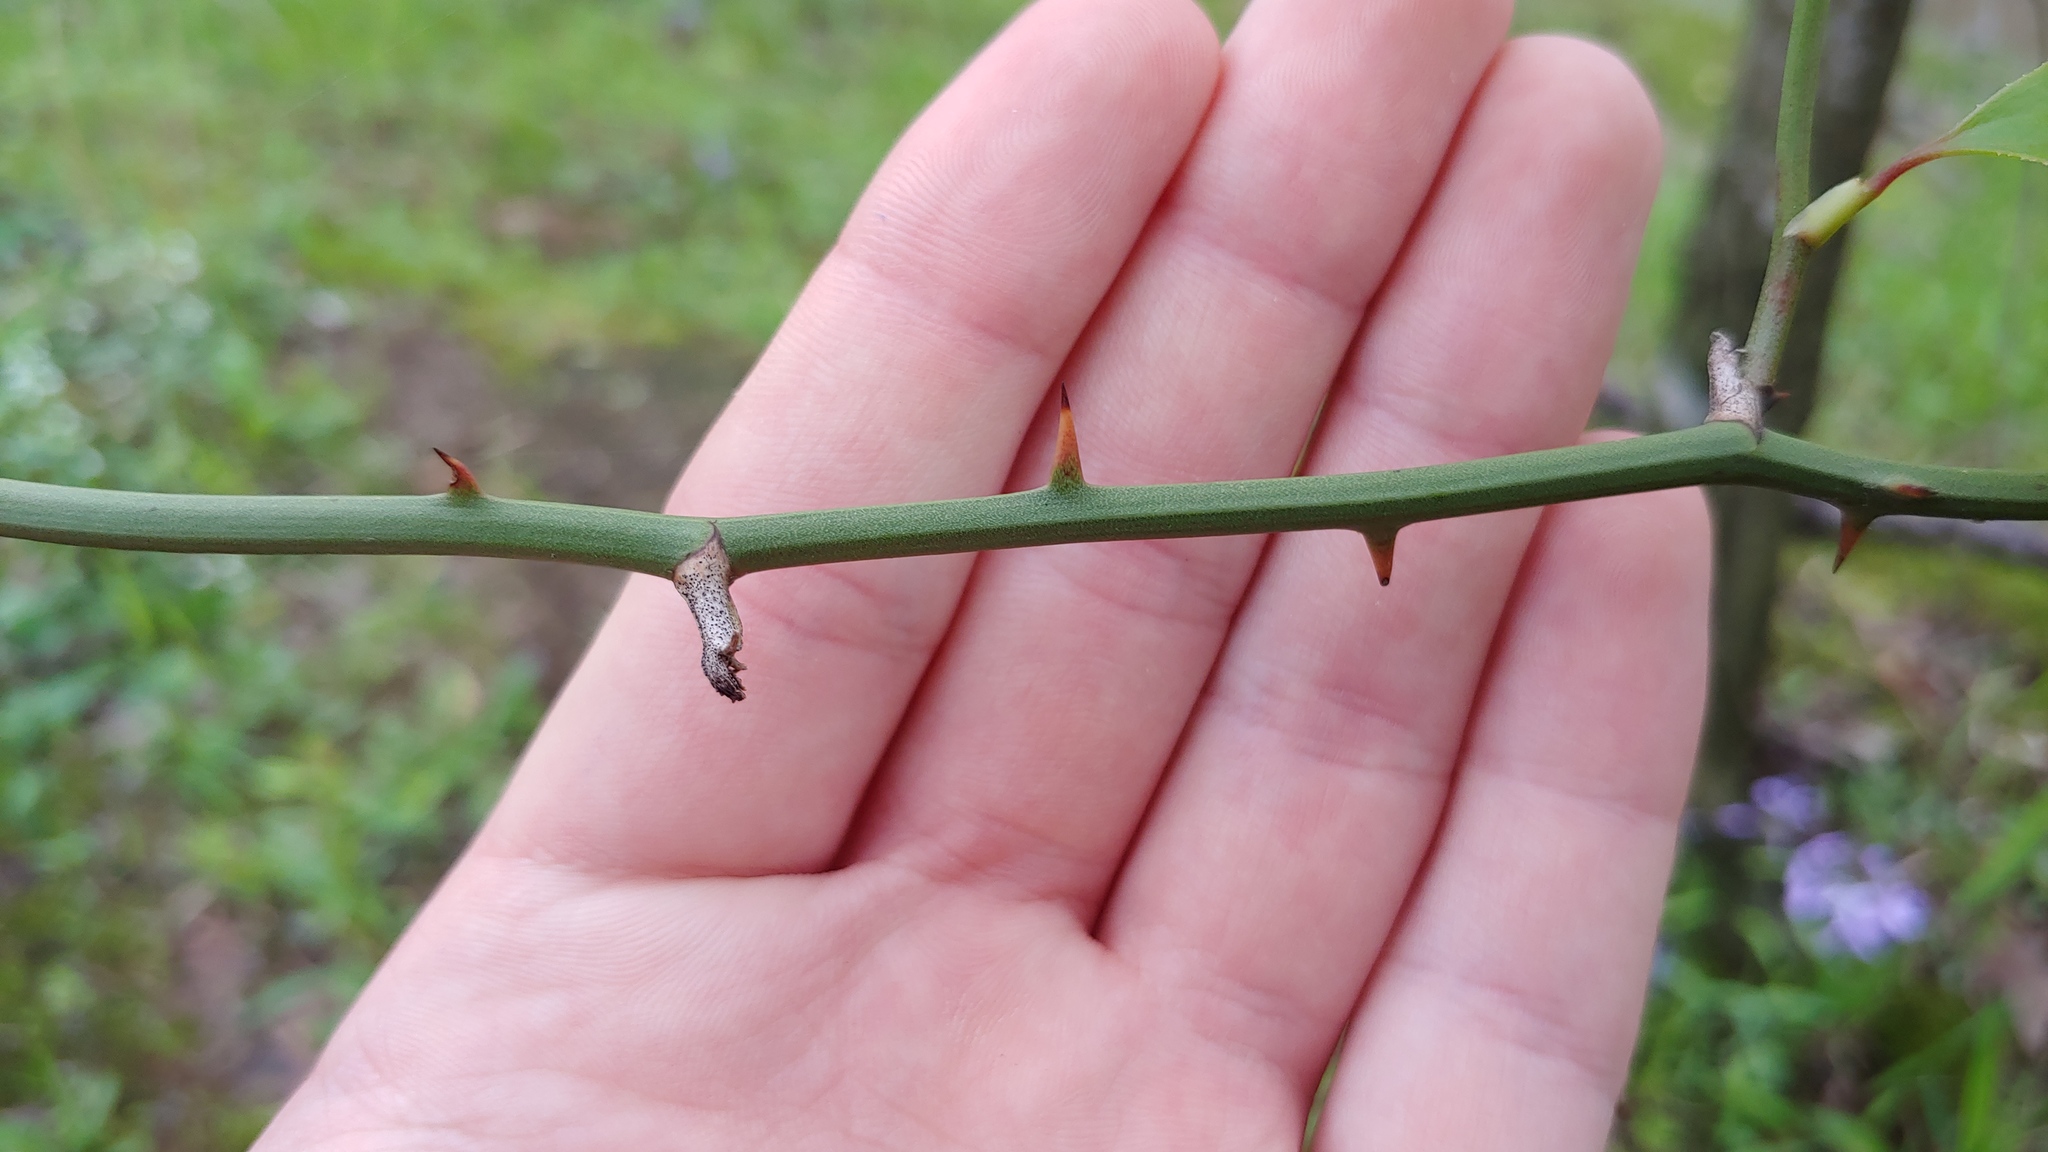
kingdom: Plantae
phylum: Tracheophyta
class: Liliopsida
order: Liliales
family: Smilacaceae
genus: Smilax
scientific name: Smilax rotundifolia
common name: Bullbriar
